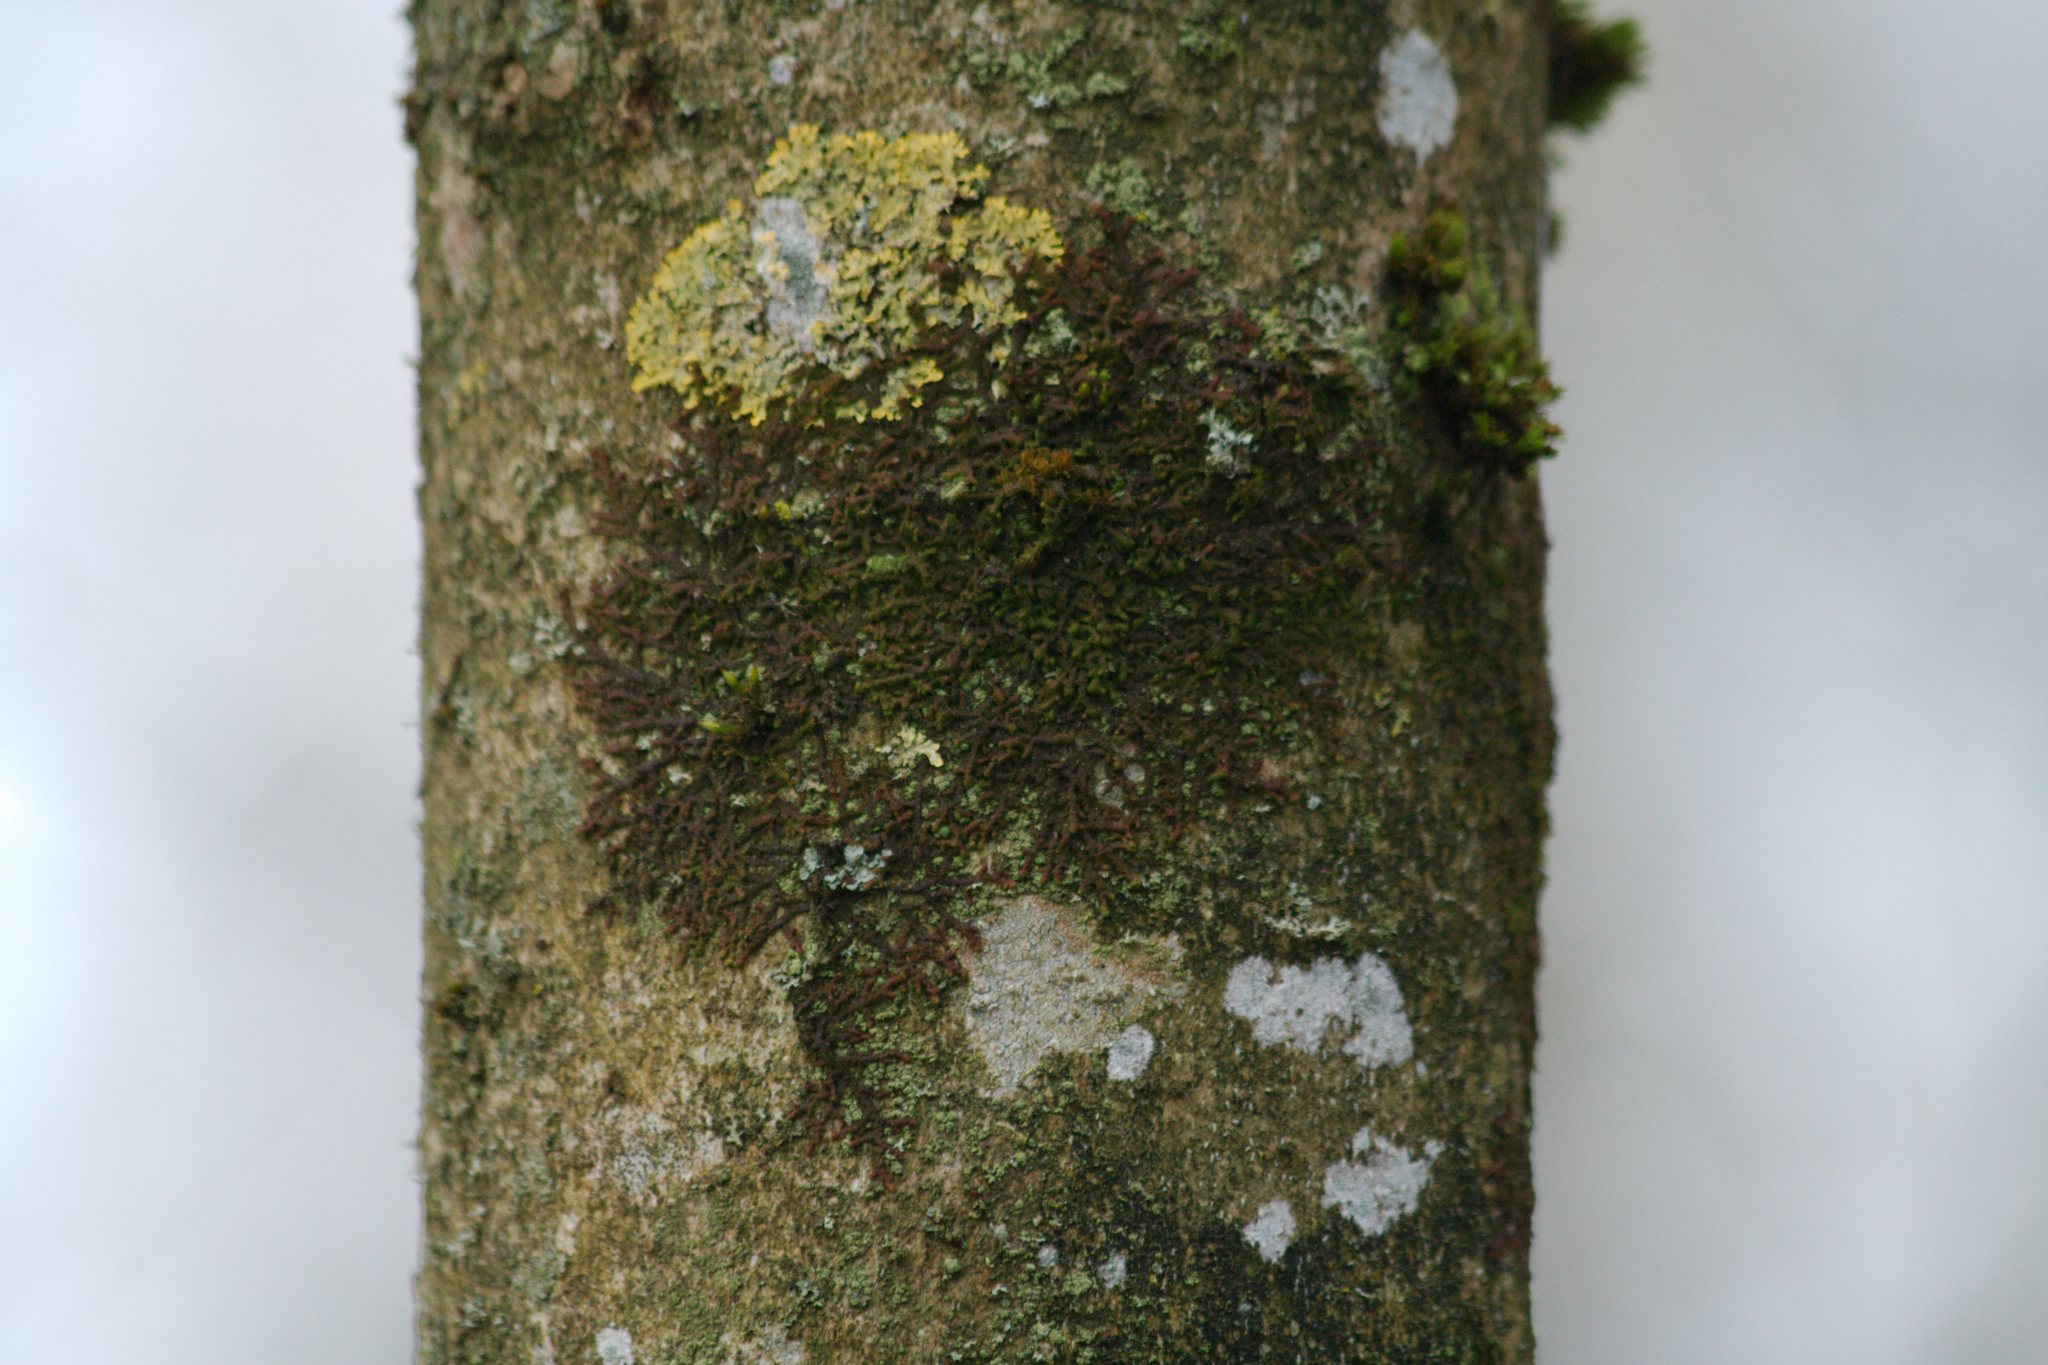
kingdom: Plantae
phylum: Marchantiophyta
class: Jungermanniopsida
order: Porellales
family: Frullaniaceae
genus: Frullania
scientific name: Frullania dilatata
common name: Dilated scalewort
